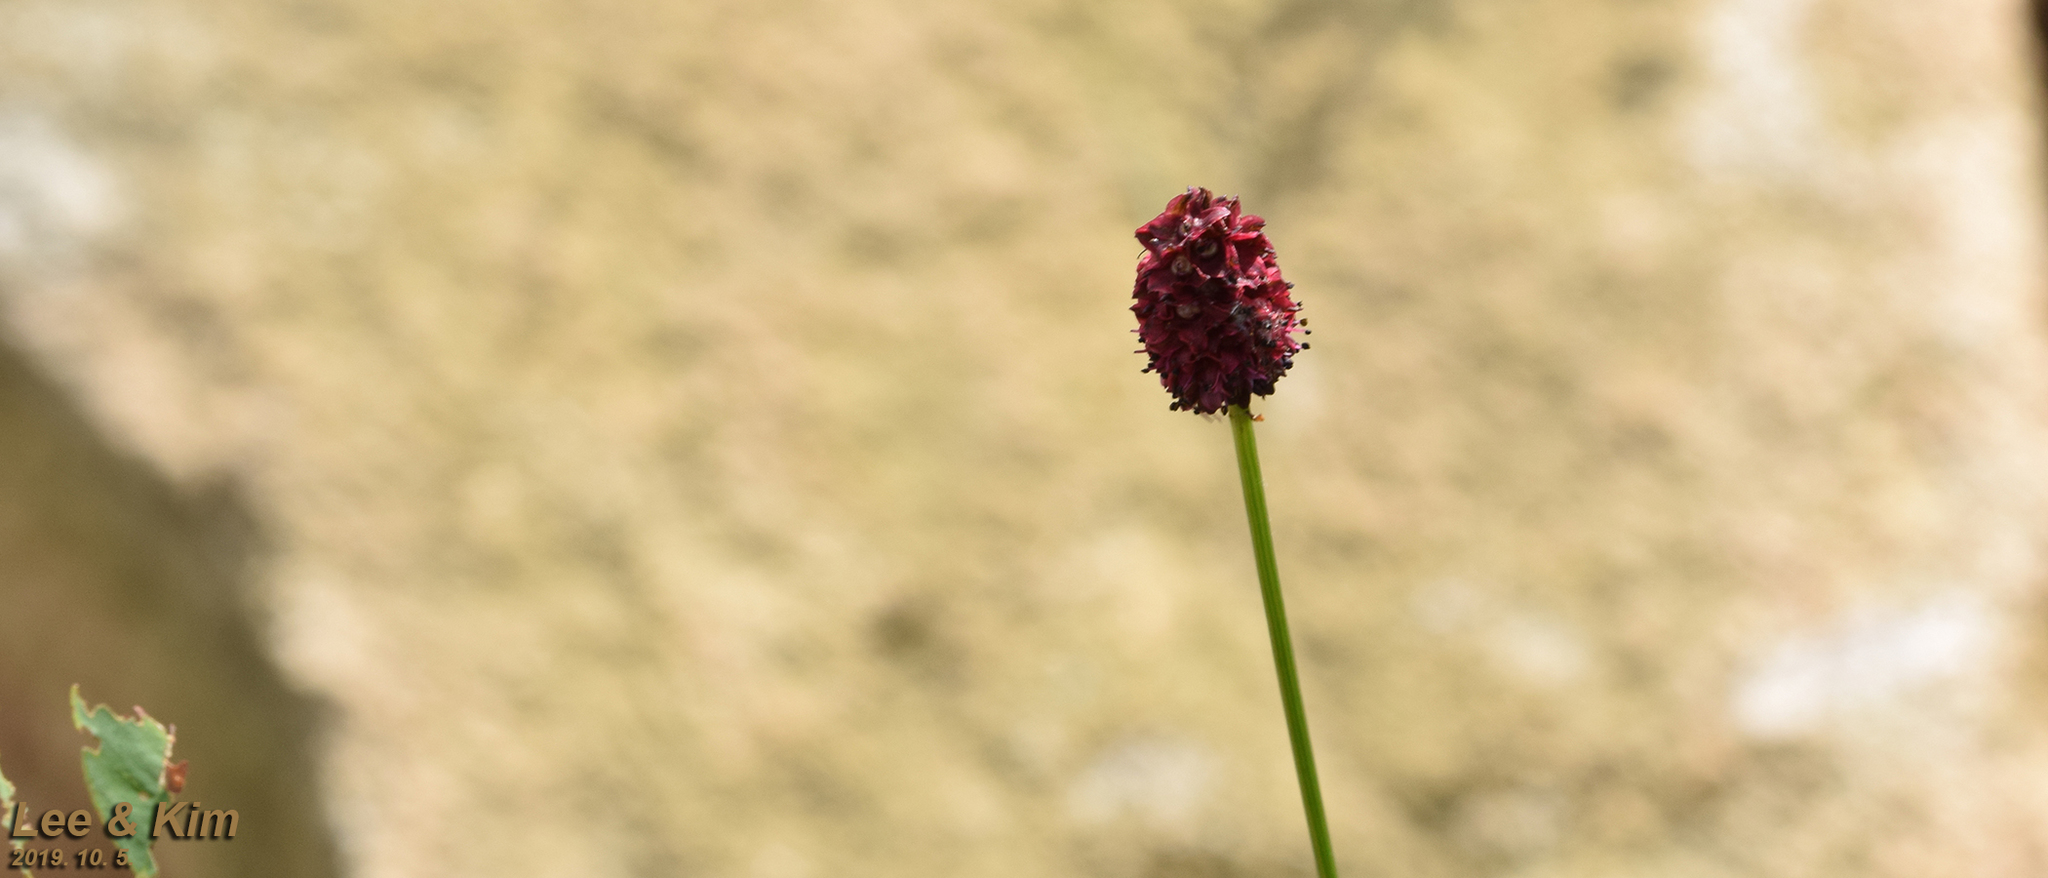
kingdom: Plantae
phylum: Tracheophyta
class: Magnoliopsida
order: Rosales
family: Rosaceae
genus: Sanguisorba
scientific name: Sanguisorba officinalis
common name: Great burnet
